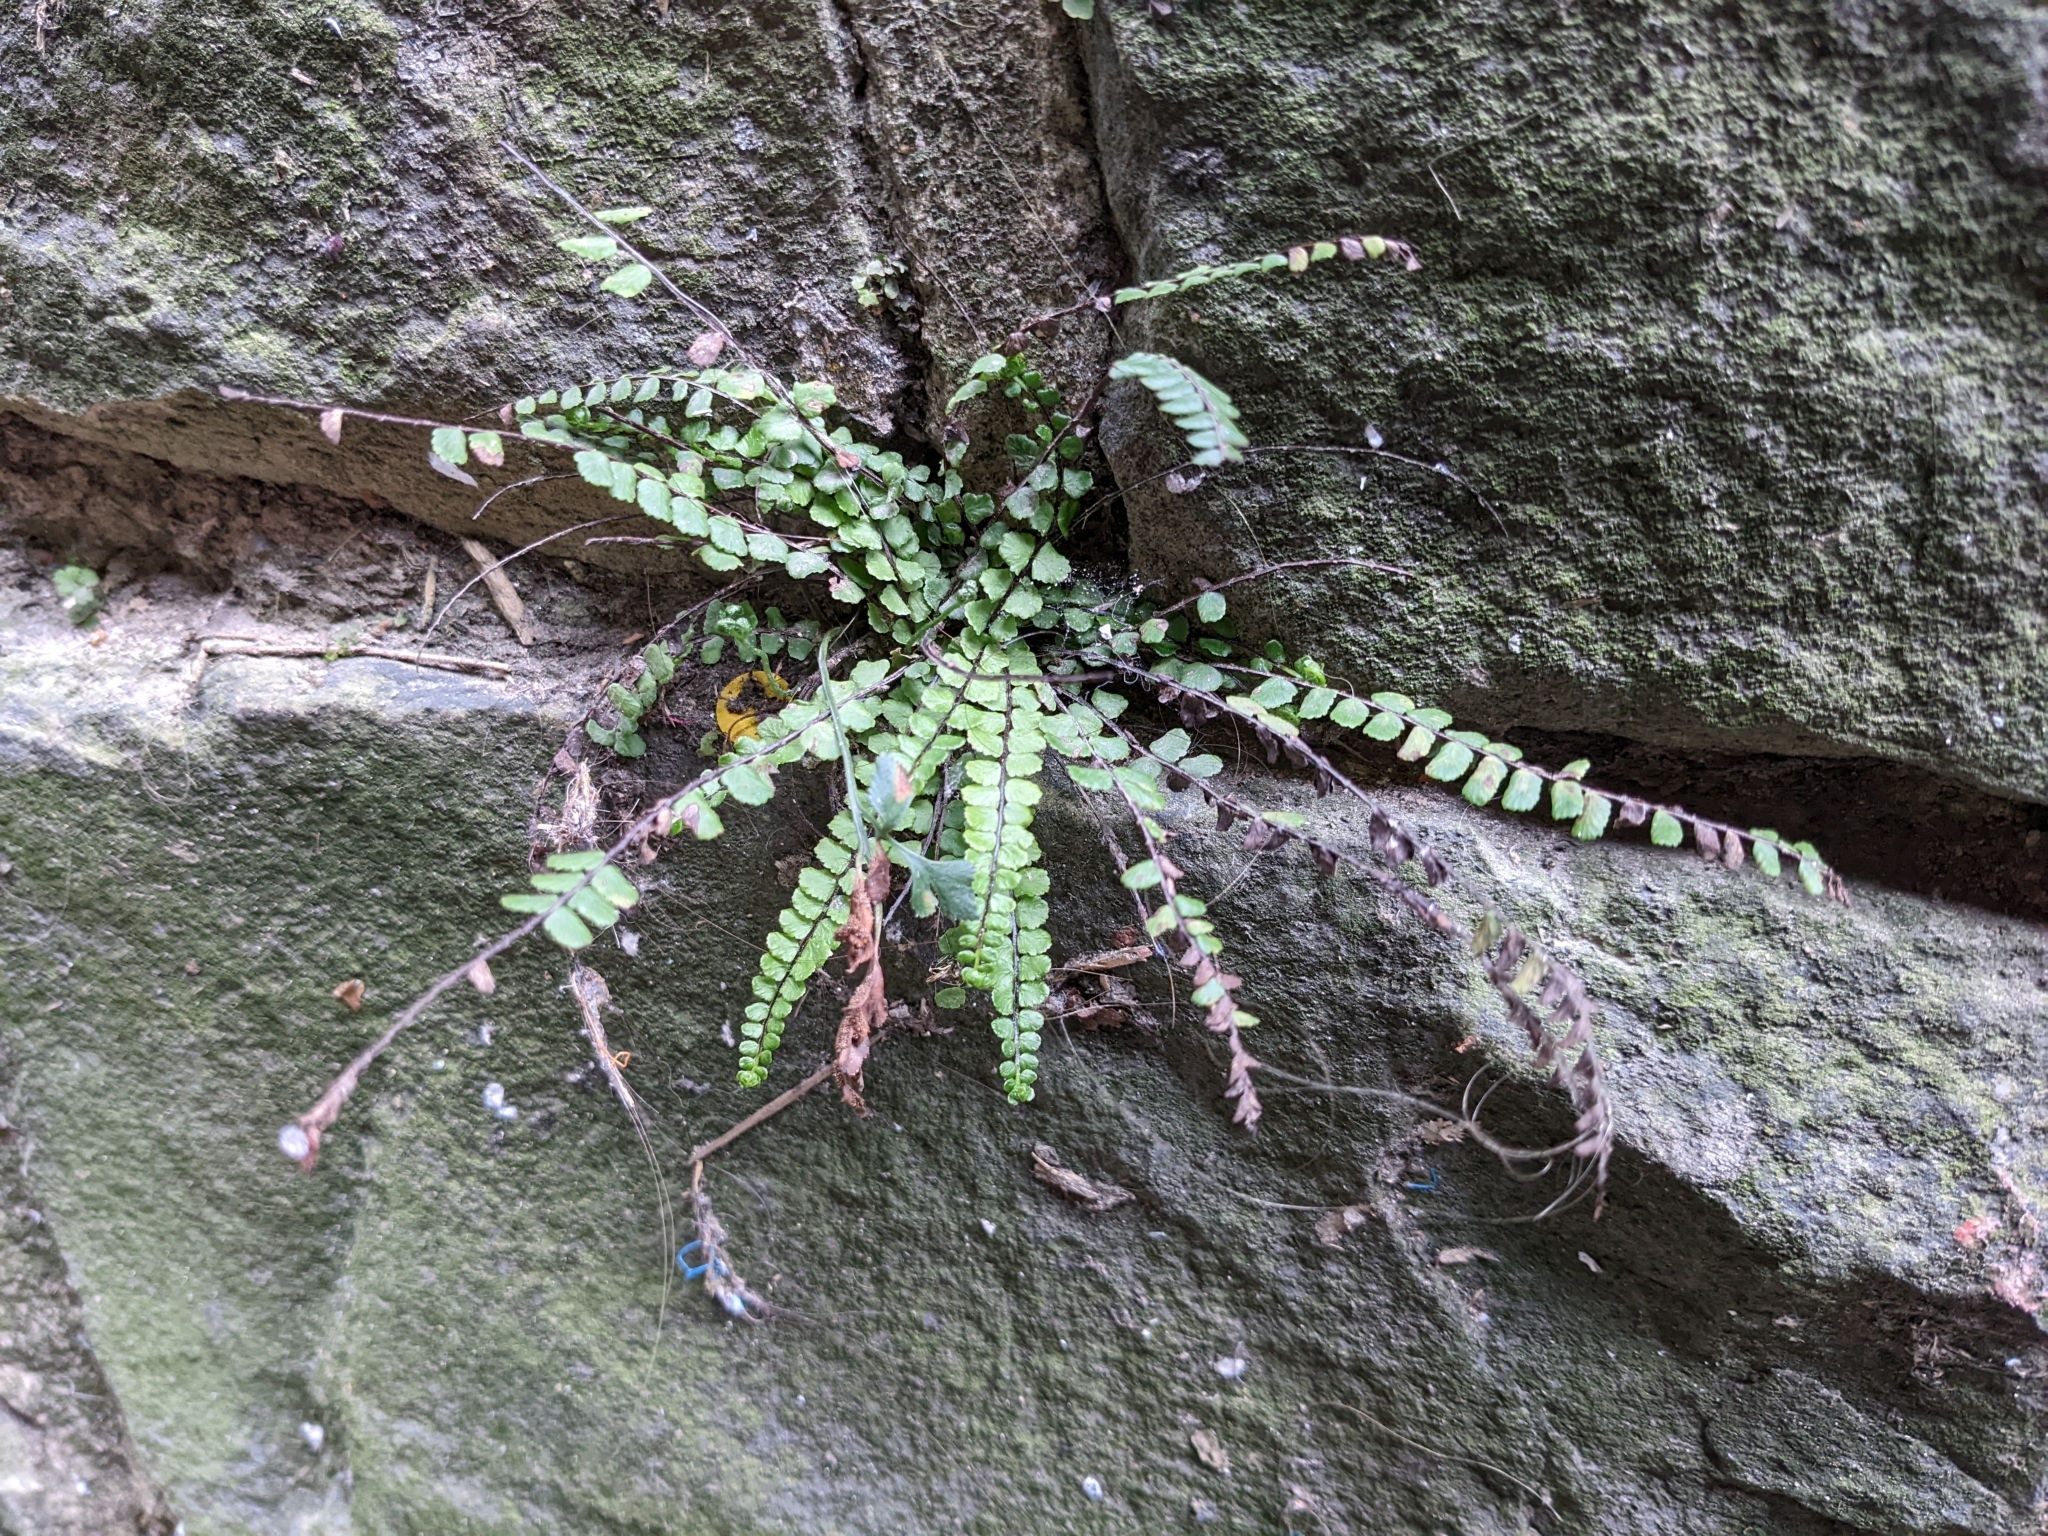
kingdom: Plantae
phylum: Tracheophyta
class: Polypodiopsida
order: Polypodiales
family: Aspleniaceae
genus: Asplenium
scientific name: Asplenium trichomanes
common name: Maidenhair spleenwort
